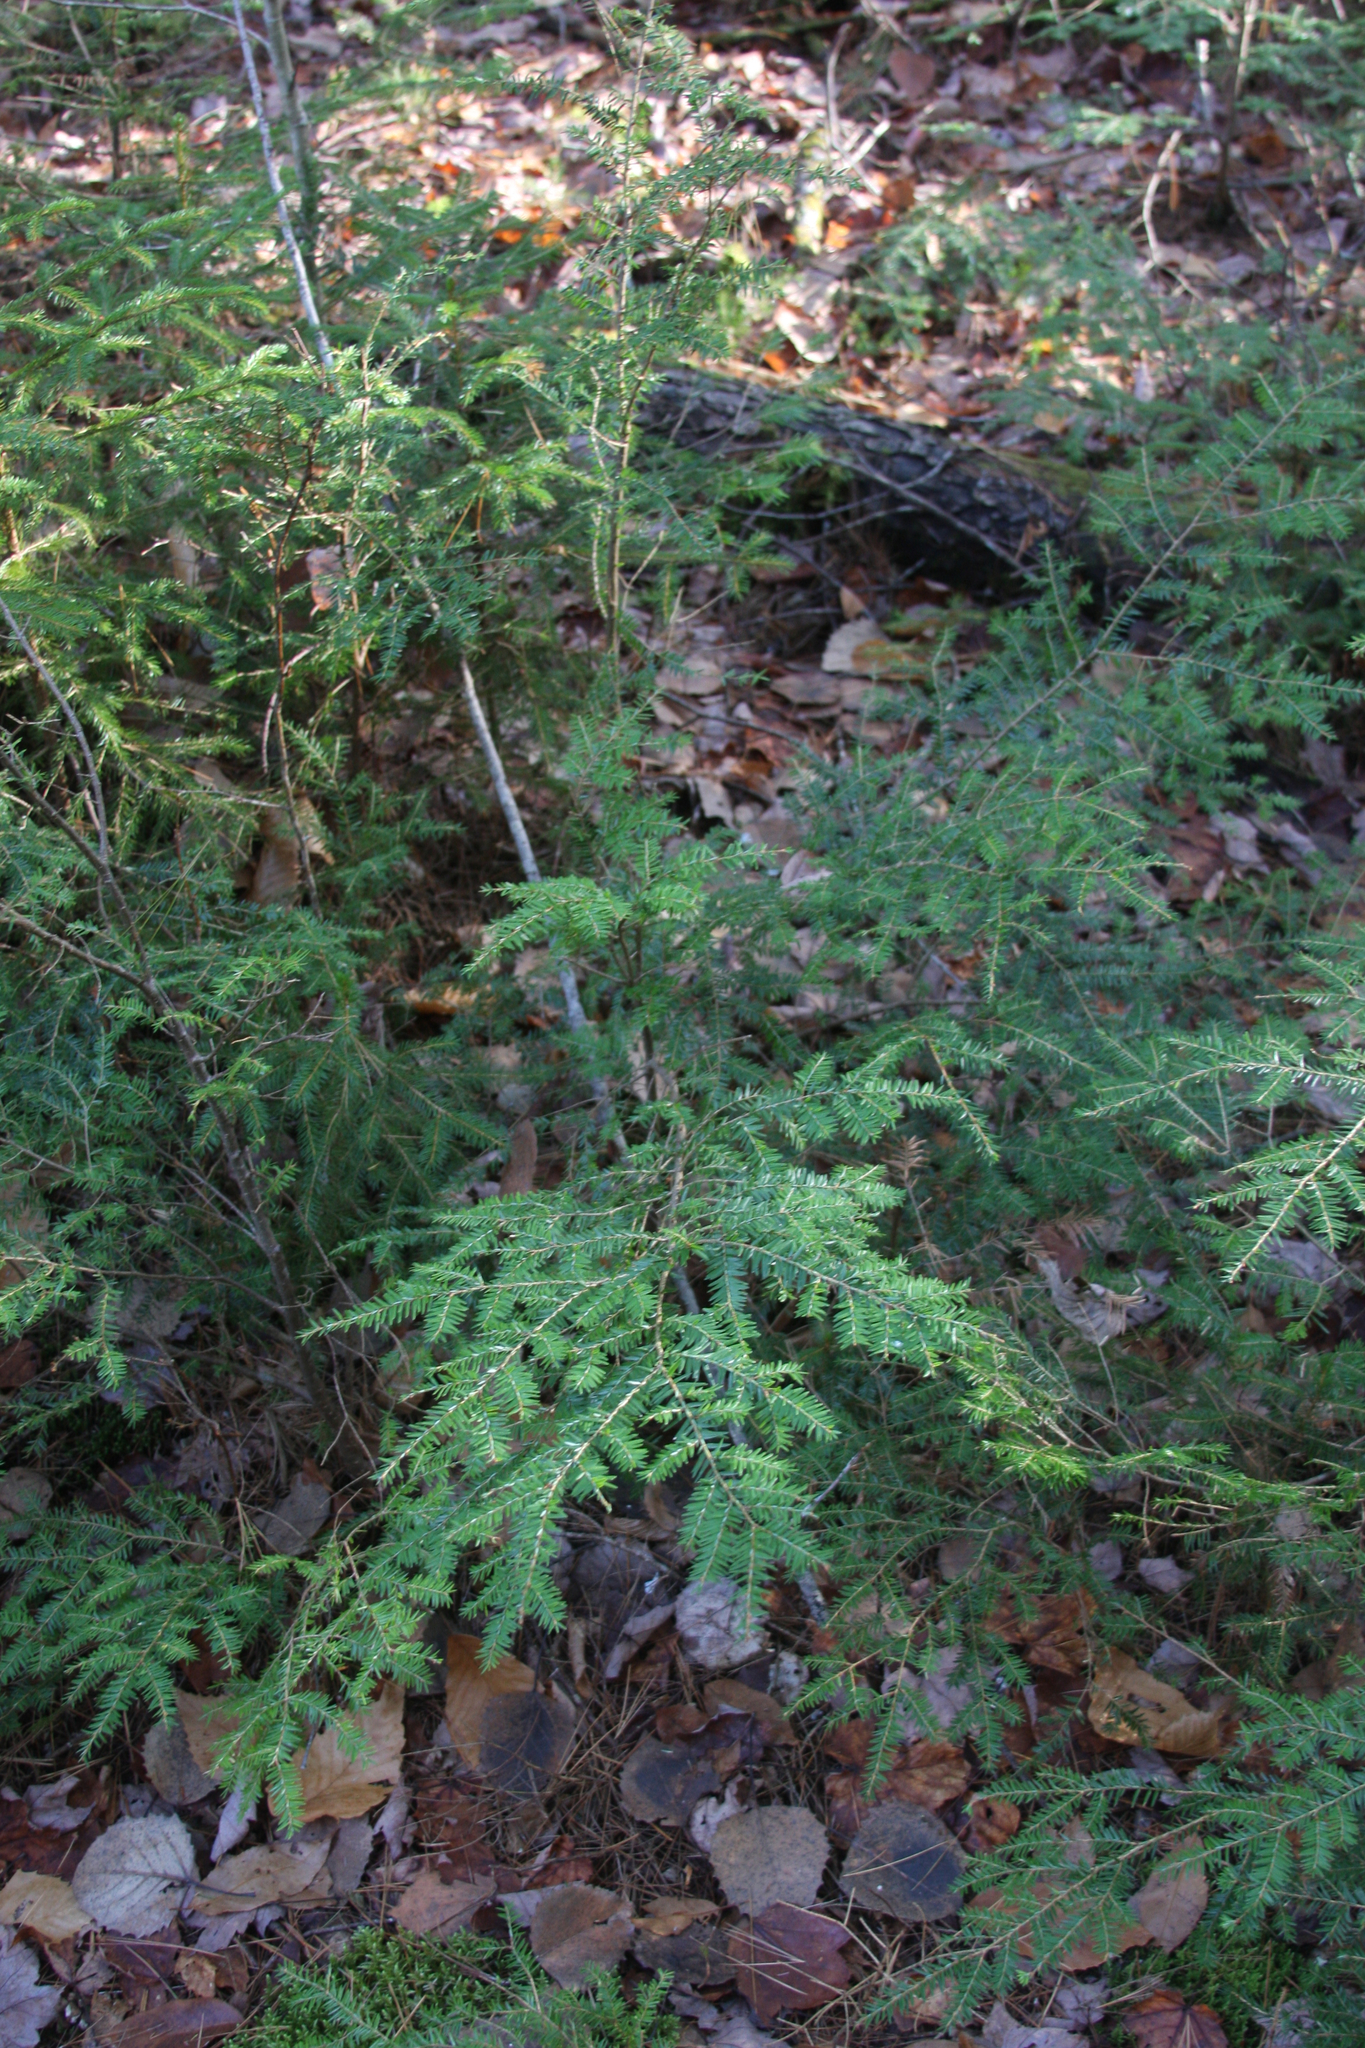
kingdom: Plantae
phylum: Tracheophyta
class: Pinopsida
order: Pinales
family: Pinaceae
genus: Tsuga
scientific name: Tsuga canadensis
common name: Eastern hemlock
